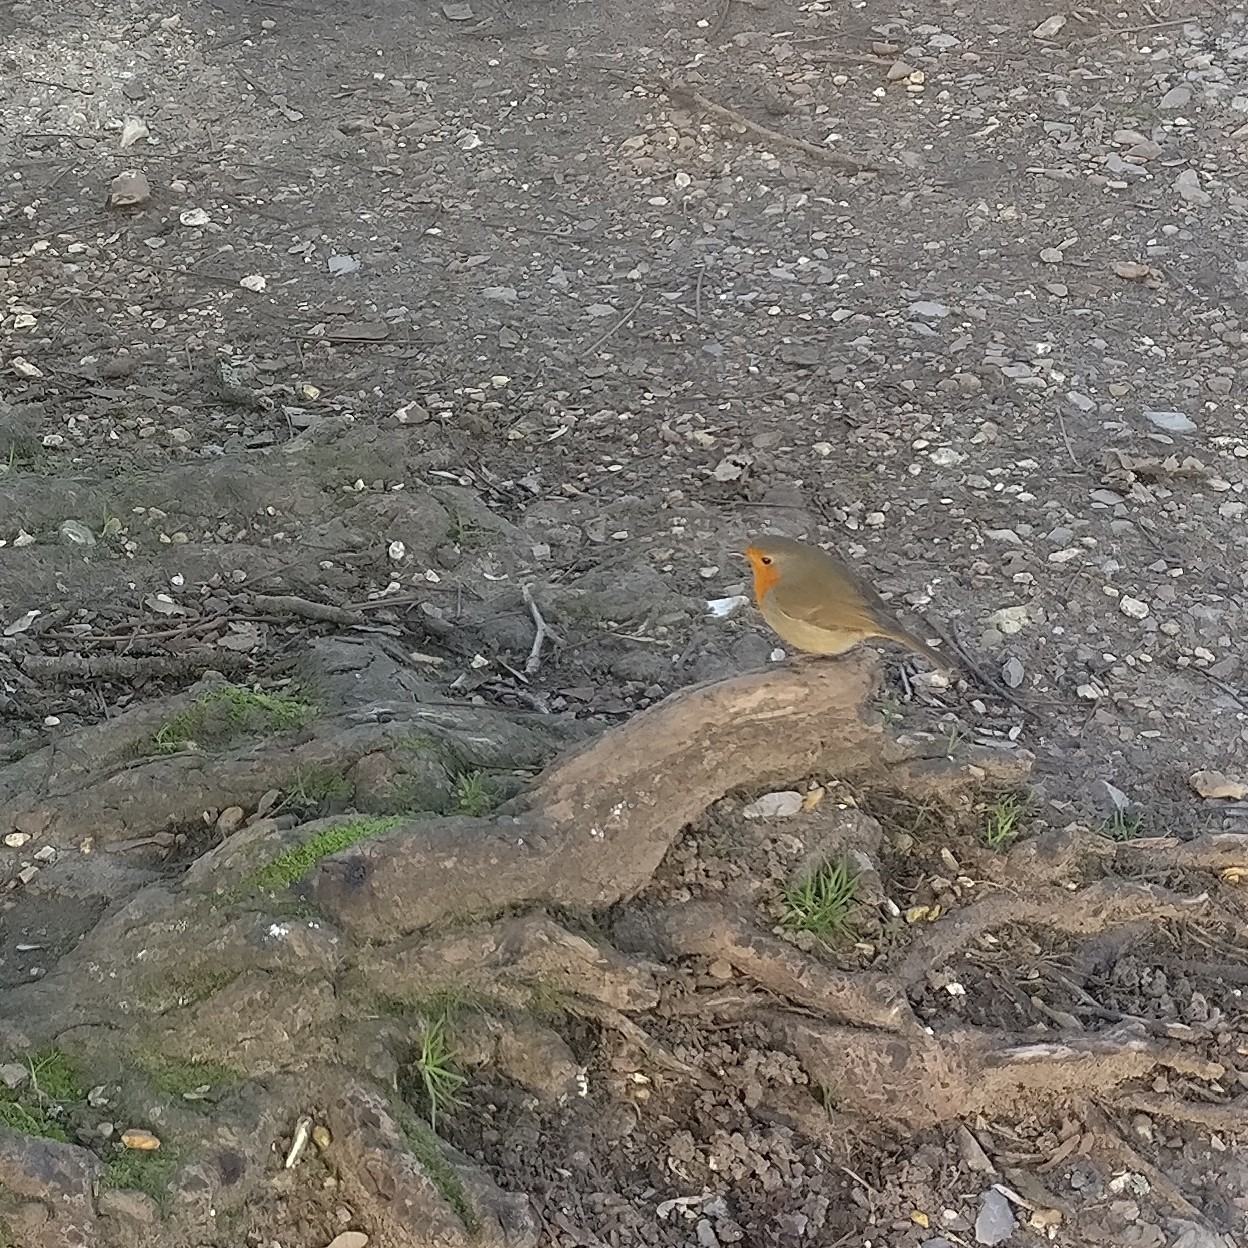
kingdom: Animalia
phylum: Chordata
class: Aves
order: Passeriformes
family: Muscicapidae
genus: Erithacus
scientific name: Erithacus rubecula
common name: European robin
